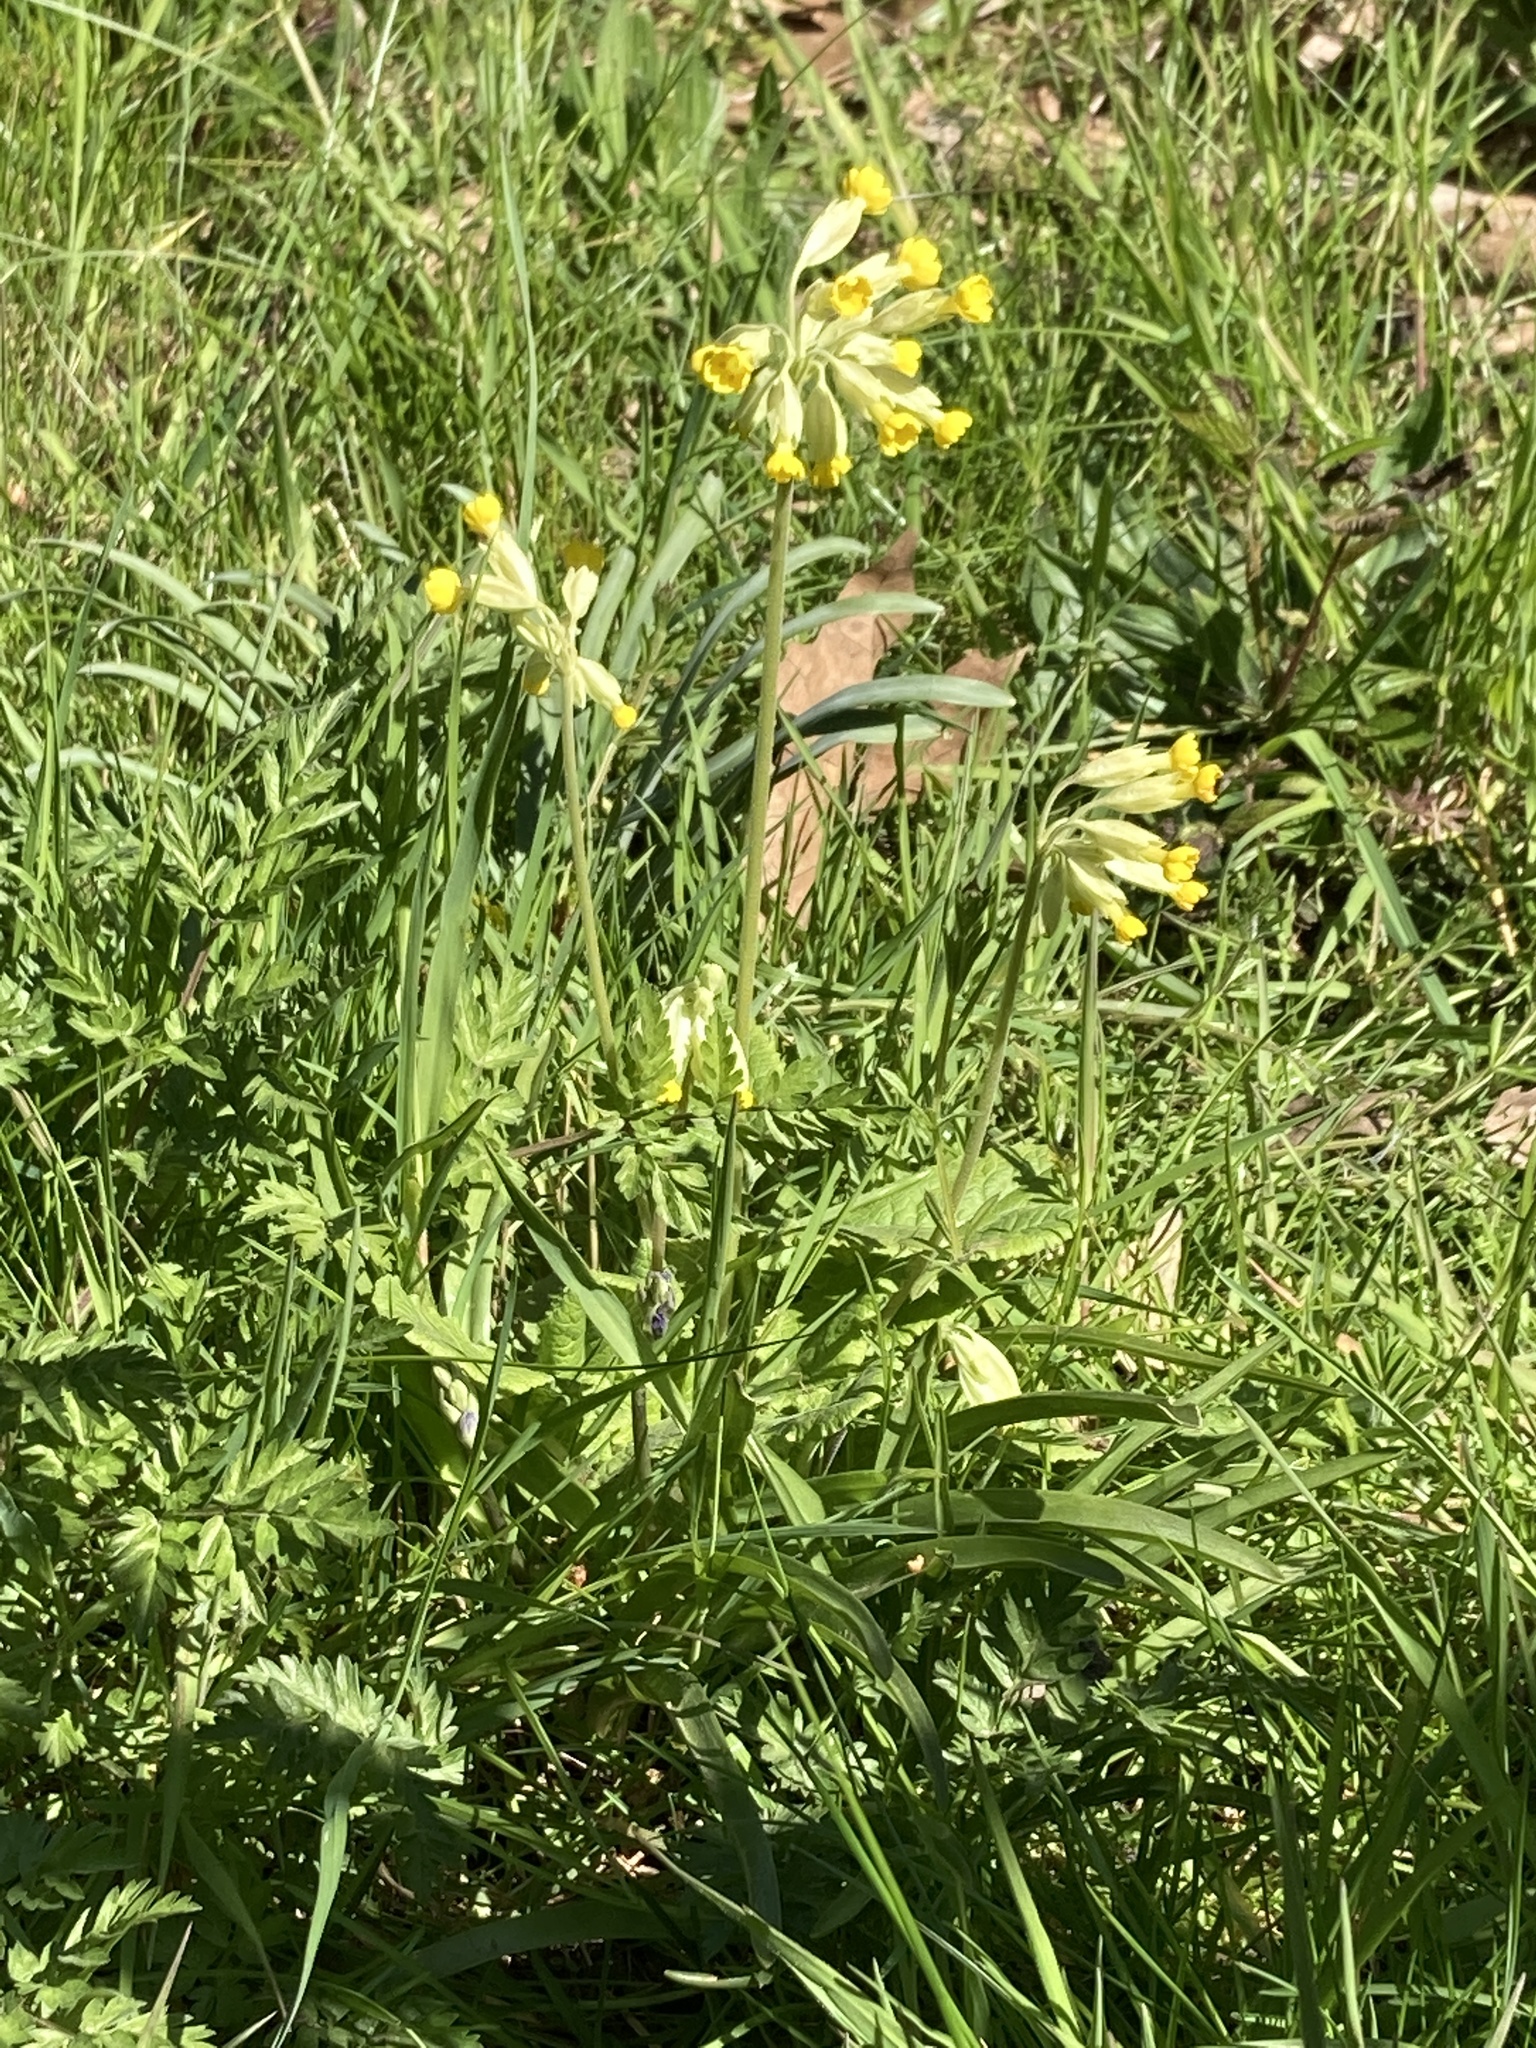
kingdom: Plantae
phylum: Tracheophyta
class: Magnoliopsida
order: Ericales
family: Primulaceae
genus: Primula
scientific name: Primula veris
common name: Cowslip
